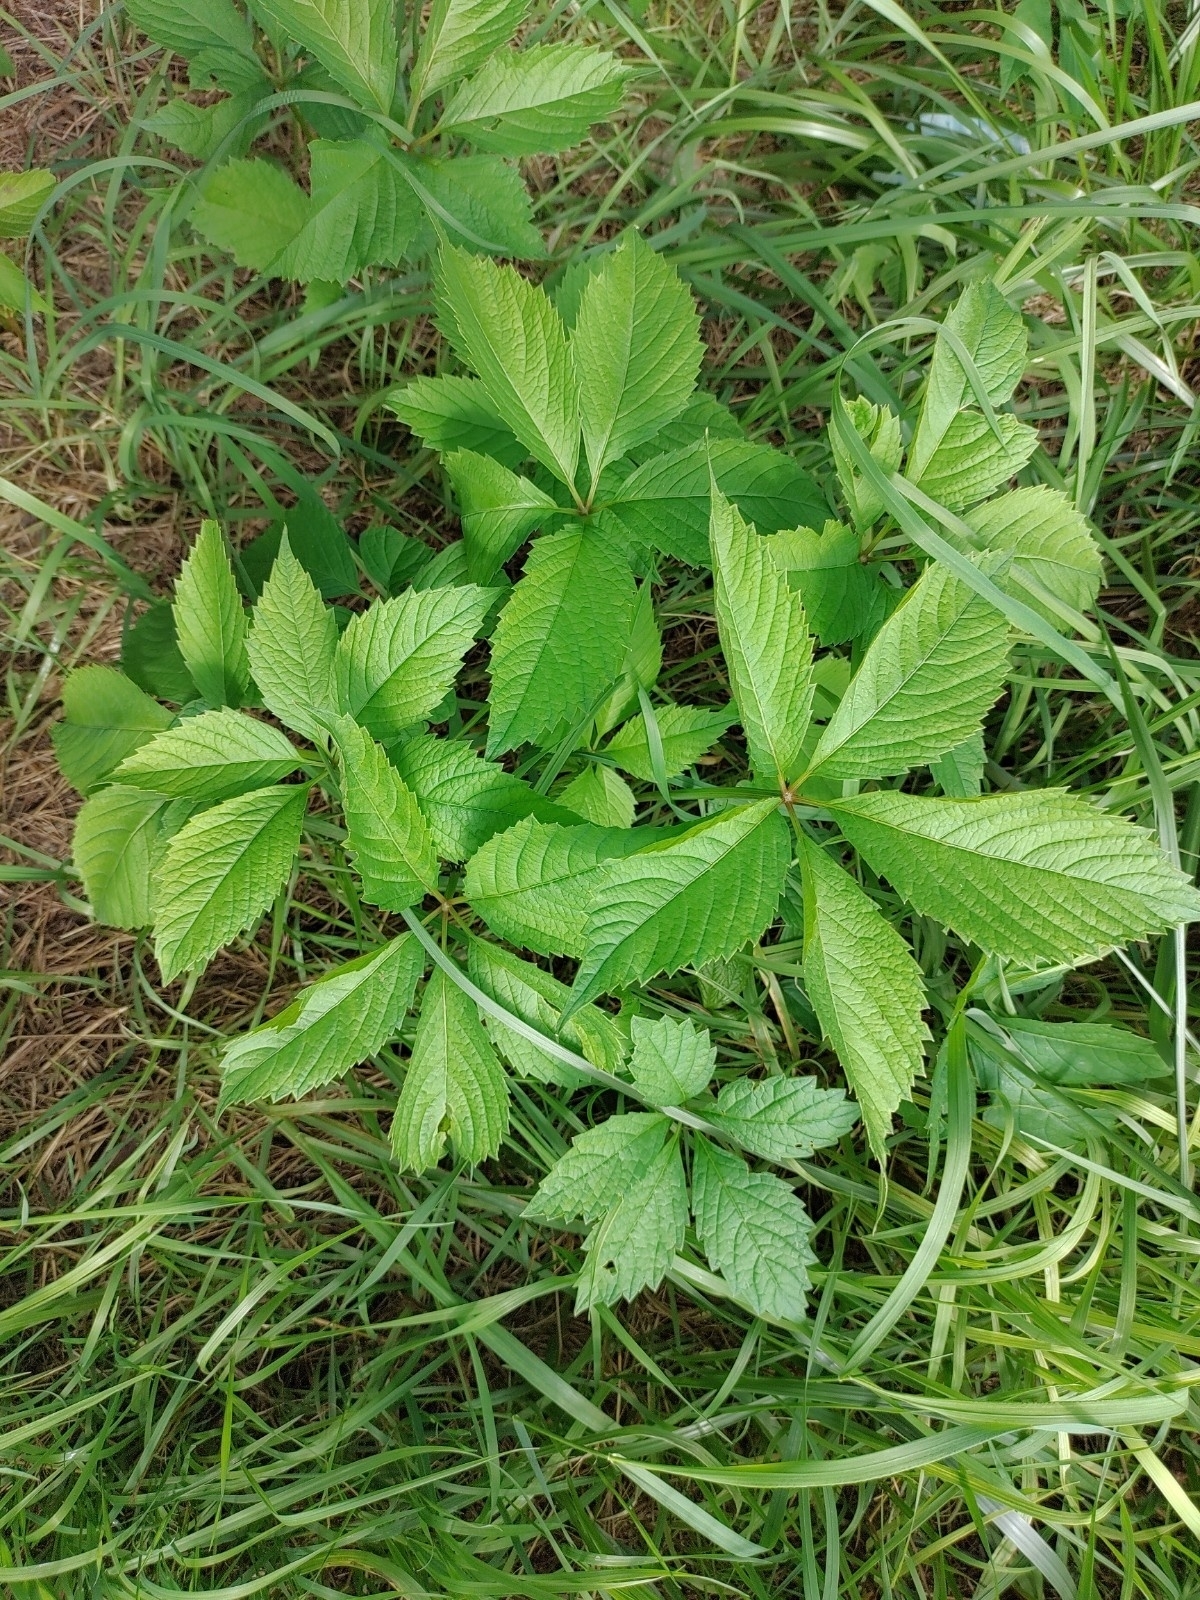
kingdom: Plantae
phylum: Tracheophyta
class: Magnoliopsida
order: Vitales
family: Vitaceae
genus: Parthenocissus
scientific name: Parthenocissus quinquefolia
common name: Virginia-creeper
